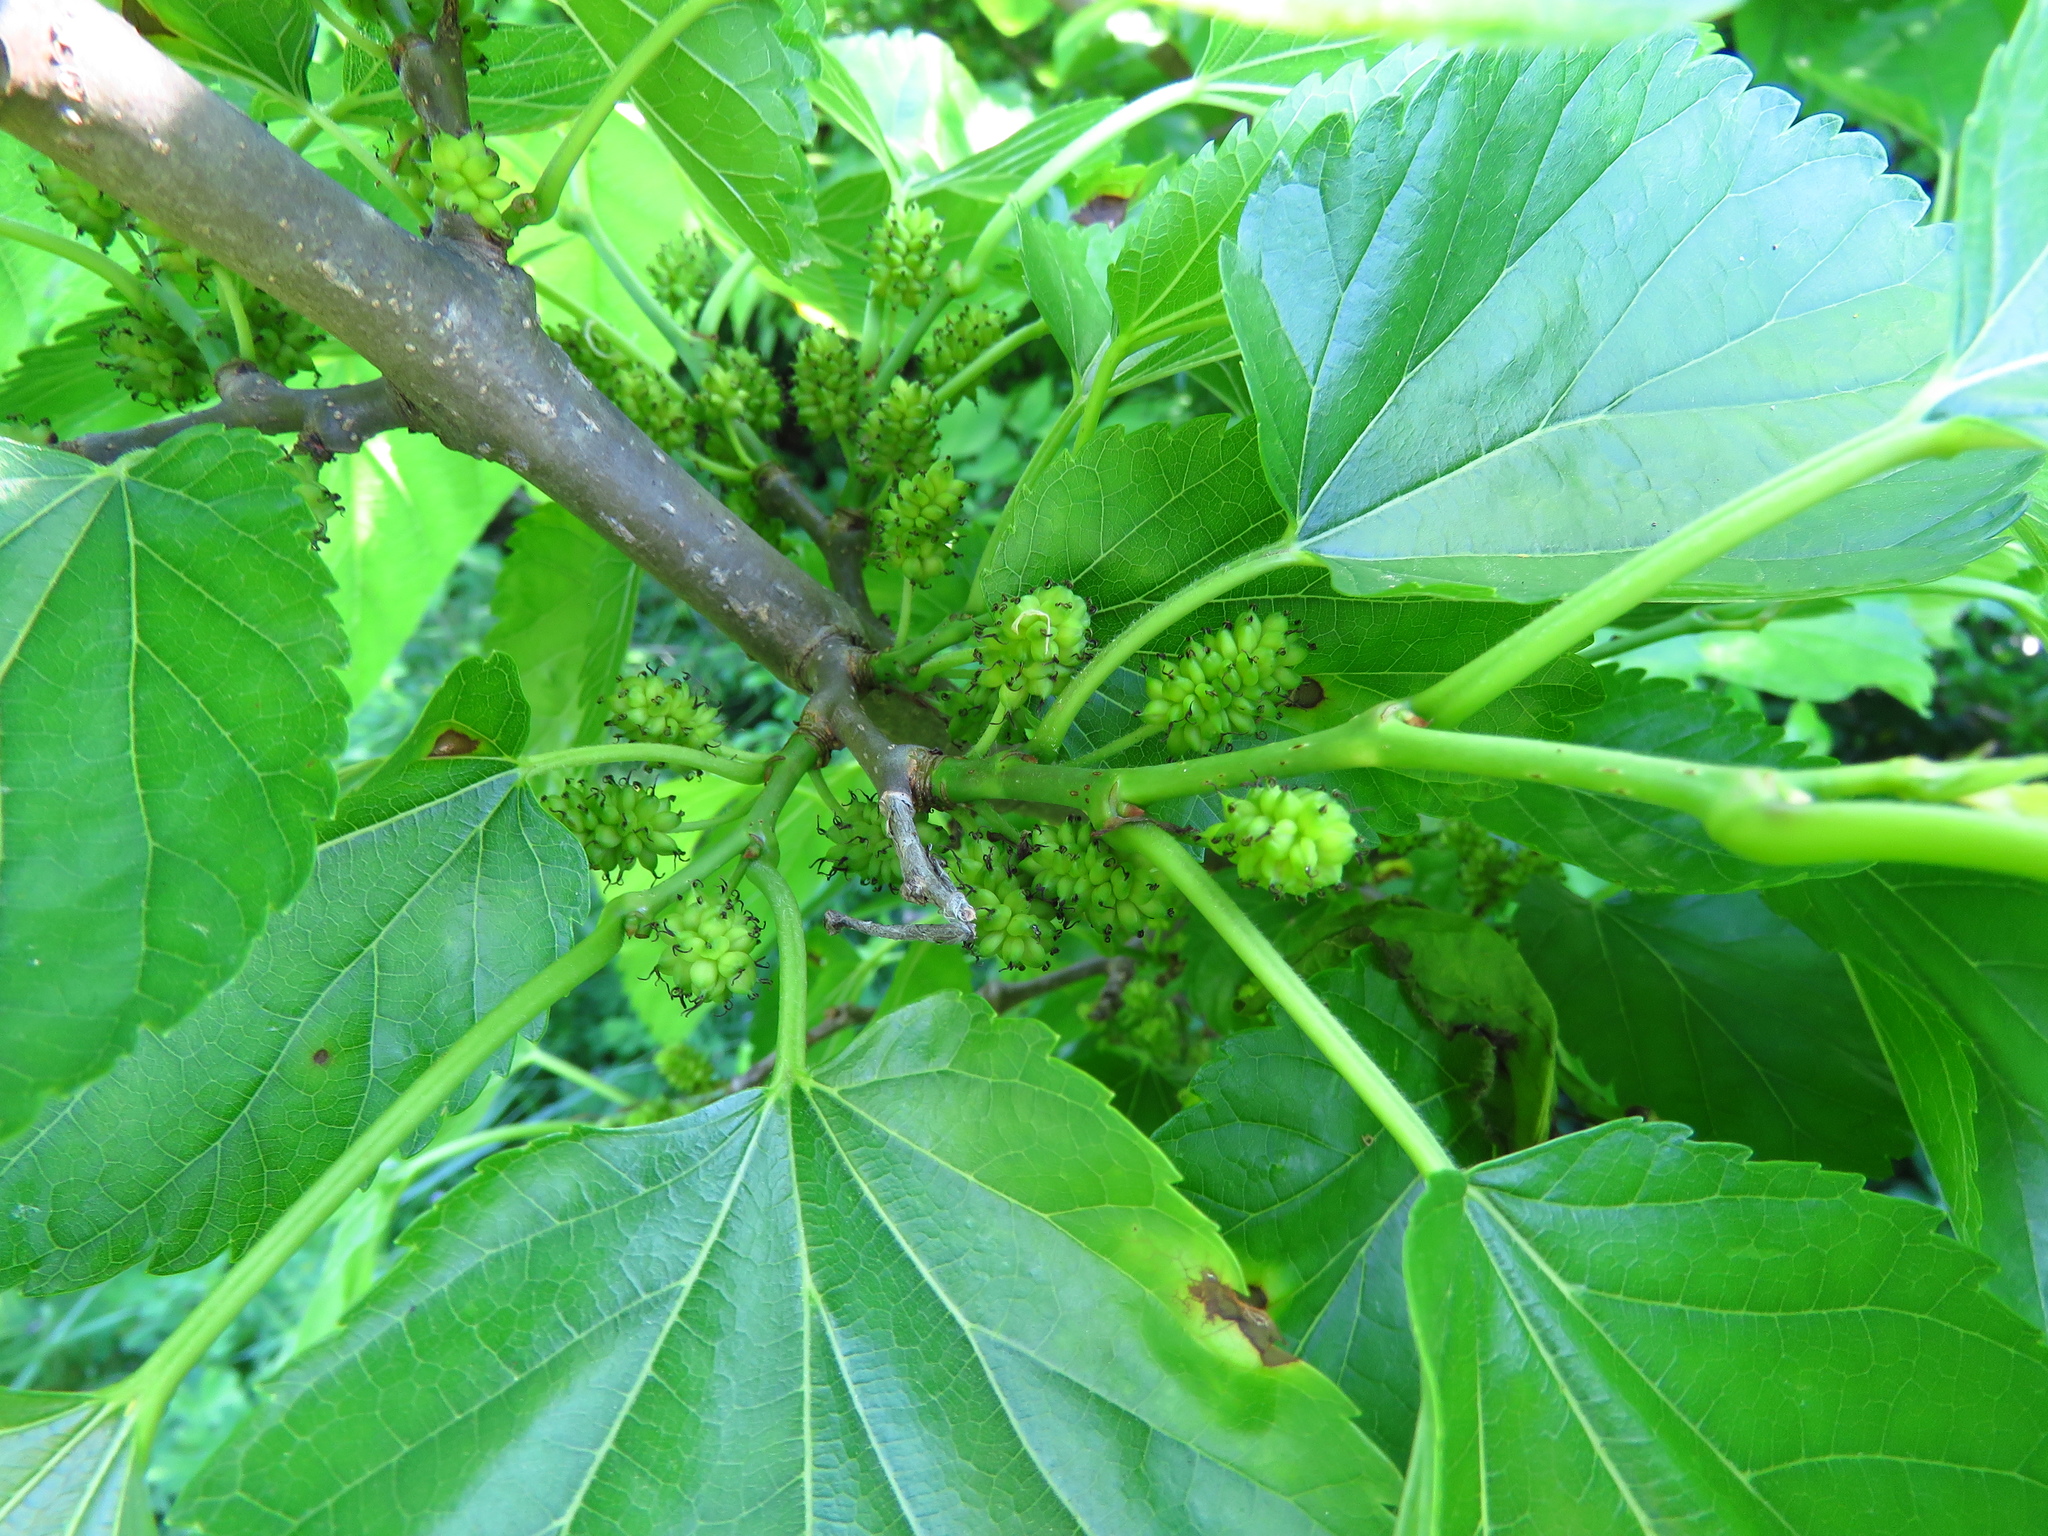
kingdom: Plantae
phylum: Tracheophyta
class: Magnoliopsida
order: Rosales
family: Moraceae
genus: Morus
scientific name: Morus alba
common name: White mulberry
